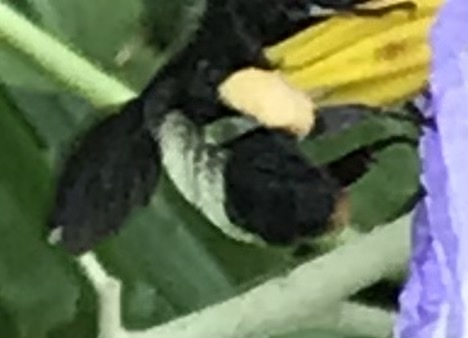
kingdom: Animalia
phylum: Arthropoda
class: Insecta
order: Hymenoptera
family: Apidae
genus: Bombus
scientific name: Bombus pensylvanicus
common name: Bumble bee
